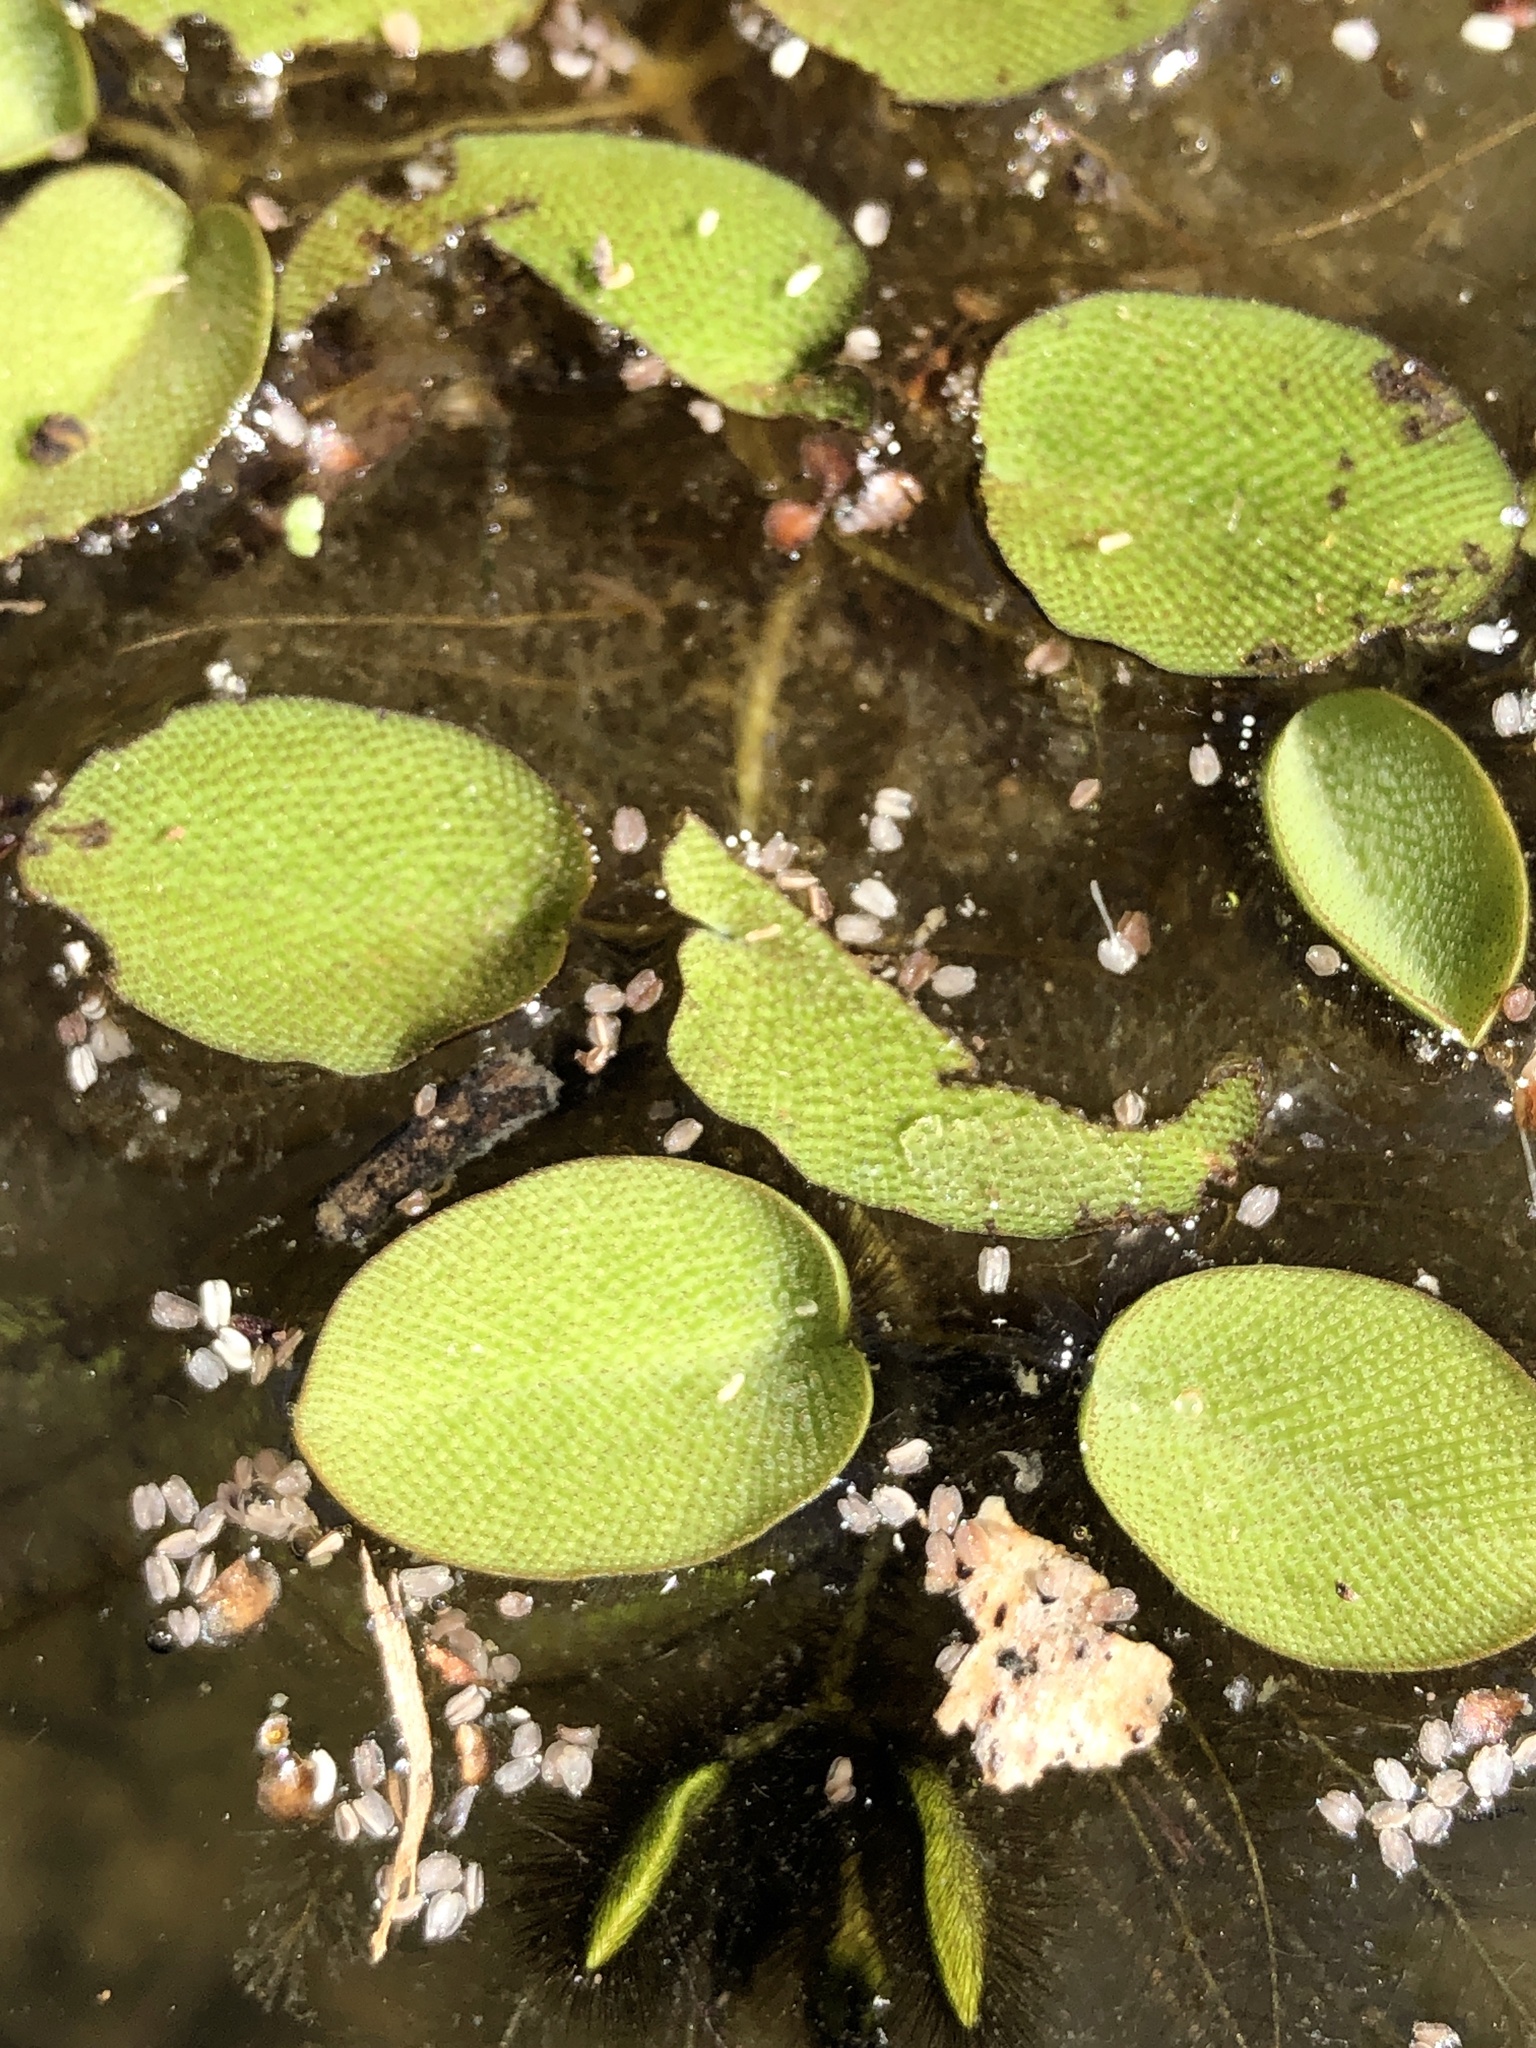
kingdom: Plantae
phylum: Tracheophyta
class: Polypodiopsida
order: Salviniales
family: Salviniaceae
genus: Salvinia
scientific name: Salvinia molesta
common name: Kariba weed
